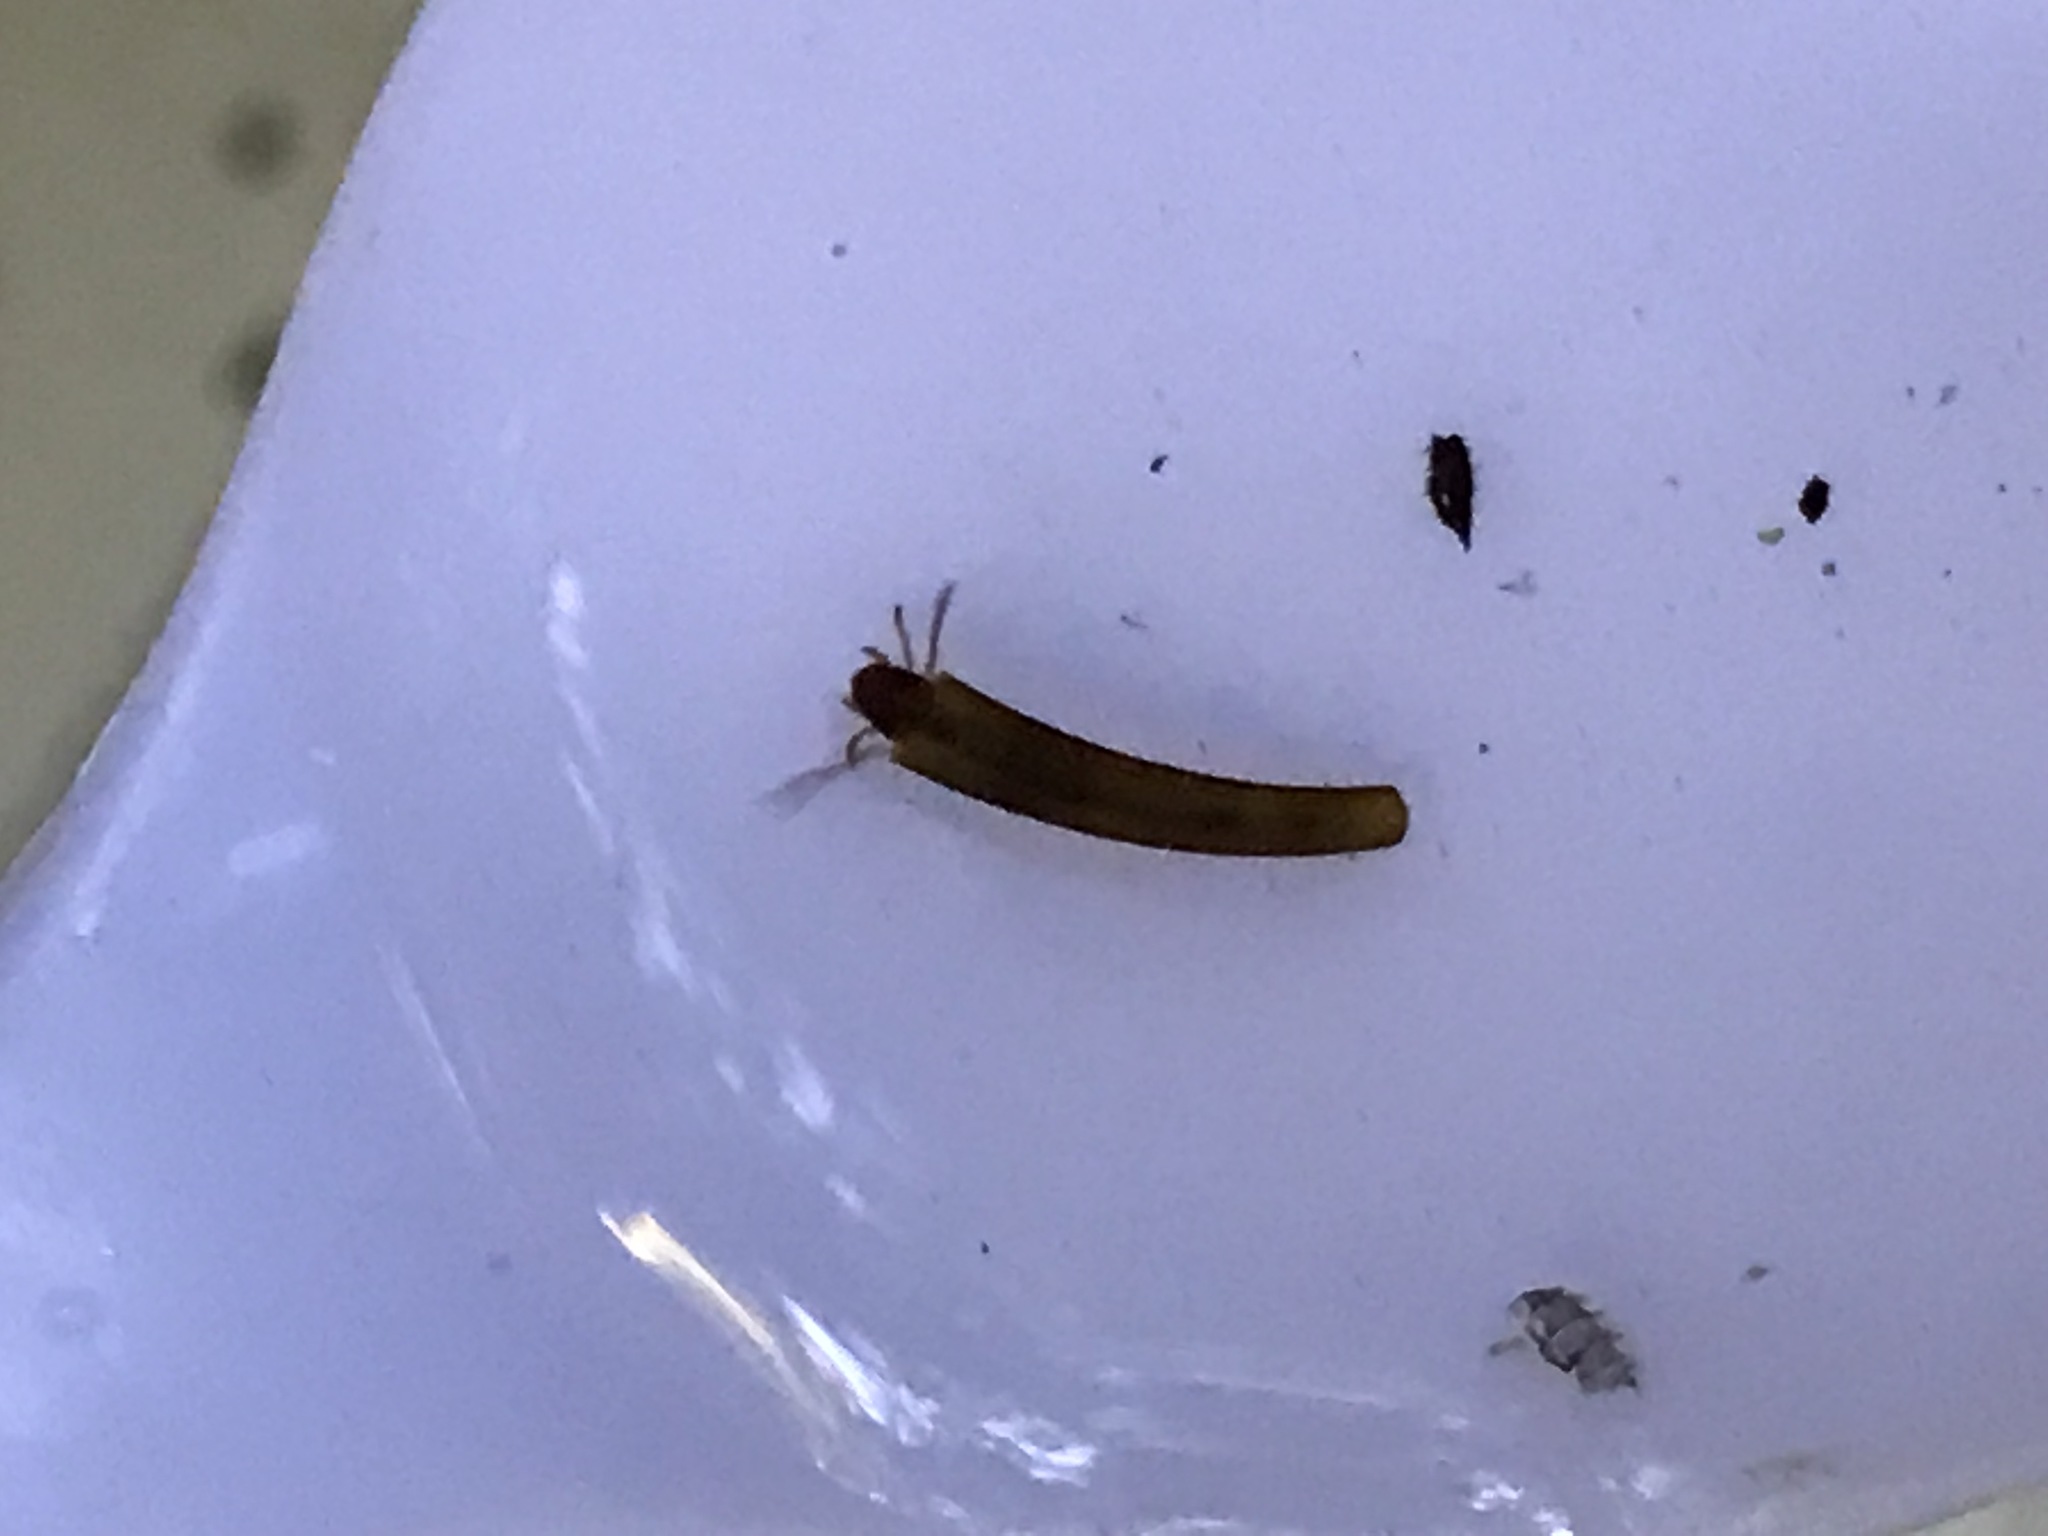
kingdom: Animalia
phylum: Arthropoda
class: Insecta
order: Trichoptera
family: Conoesucidae
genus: Olinga
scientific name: Olinga feredayi
